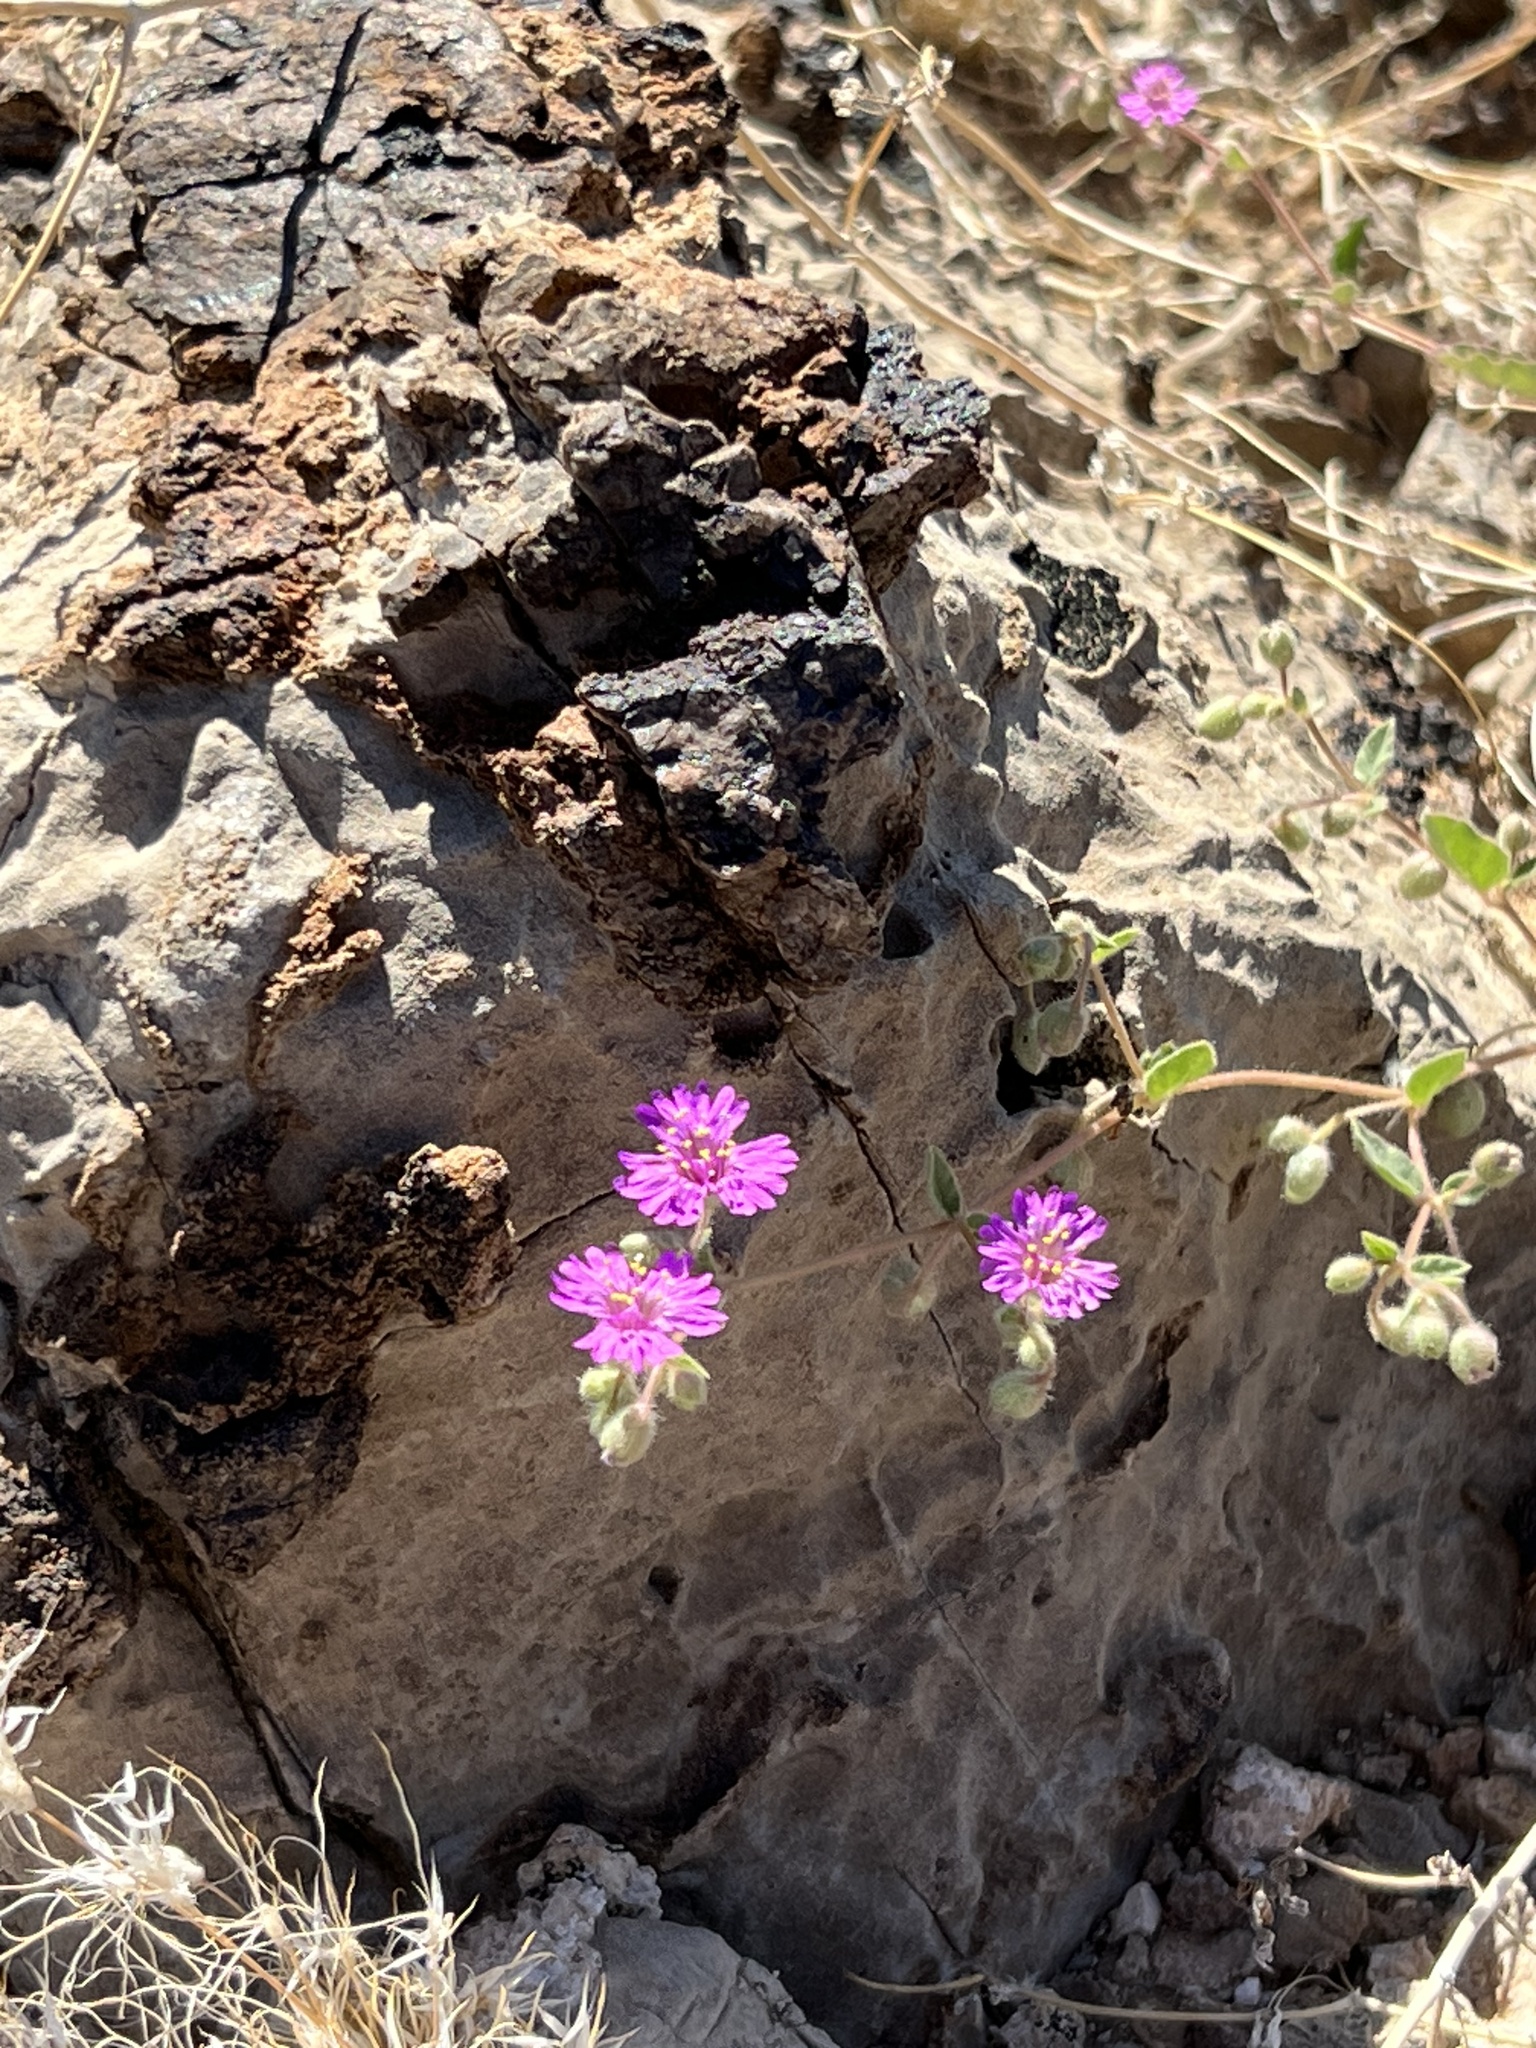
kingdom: Plantae
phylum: Tracheophyta
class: Magnoliopsida
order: Caryophyllales
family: Nyctaginaceae
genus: Allionia
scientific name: Allionia incarnata
